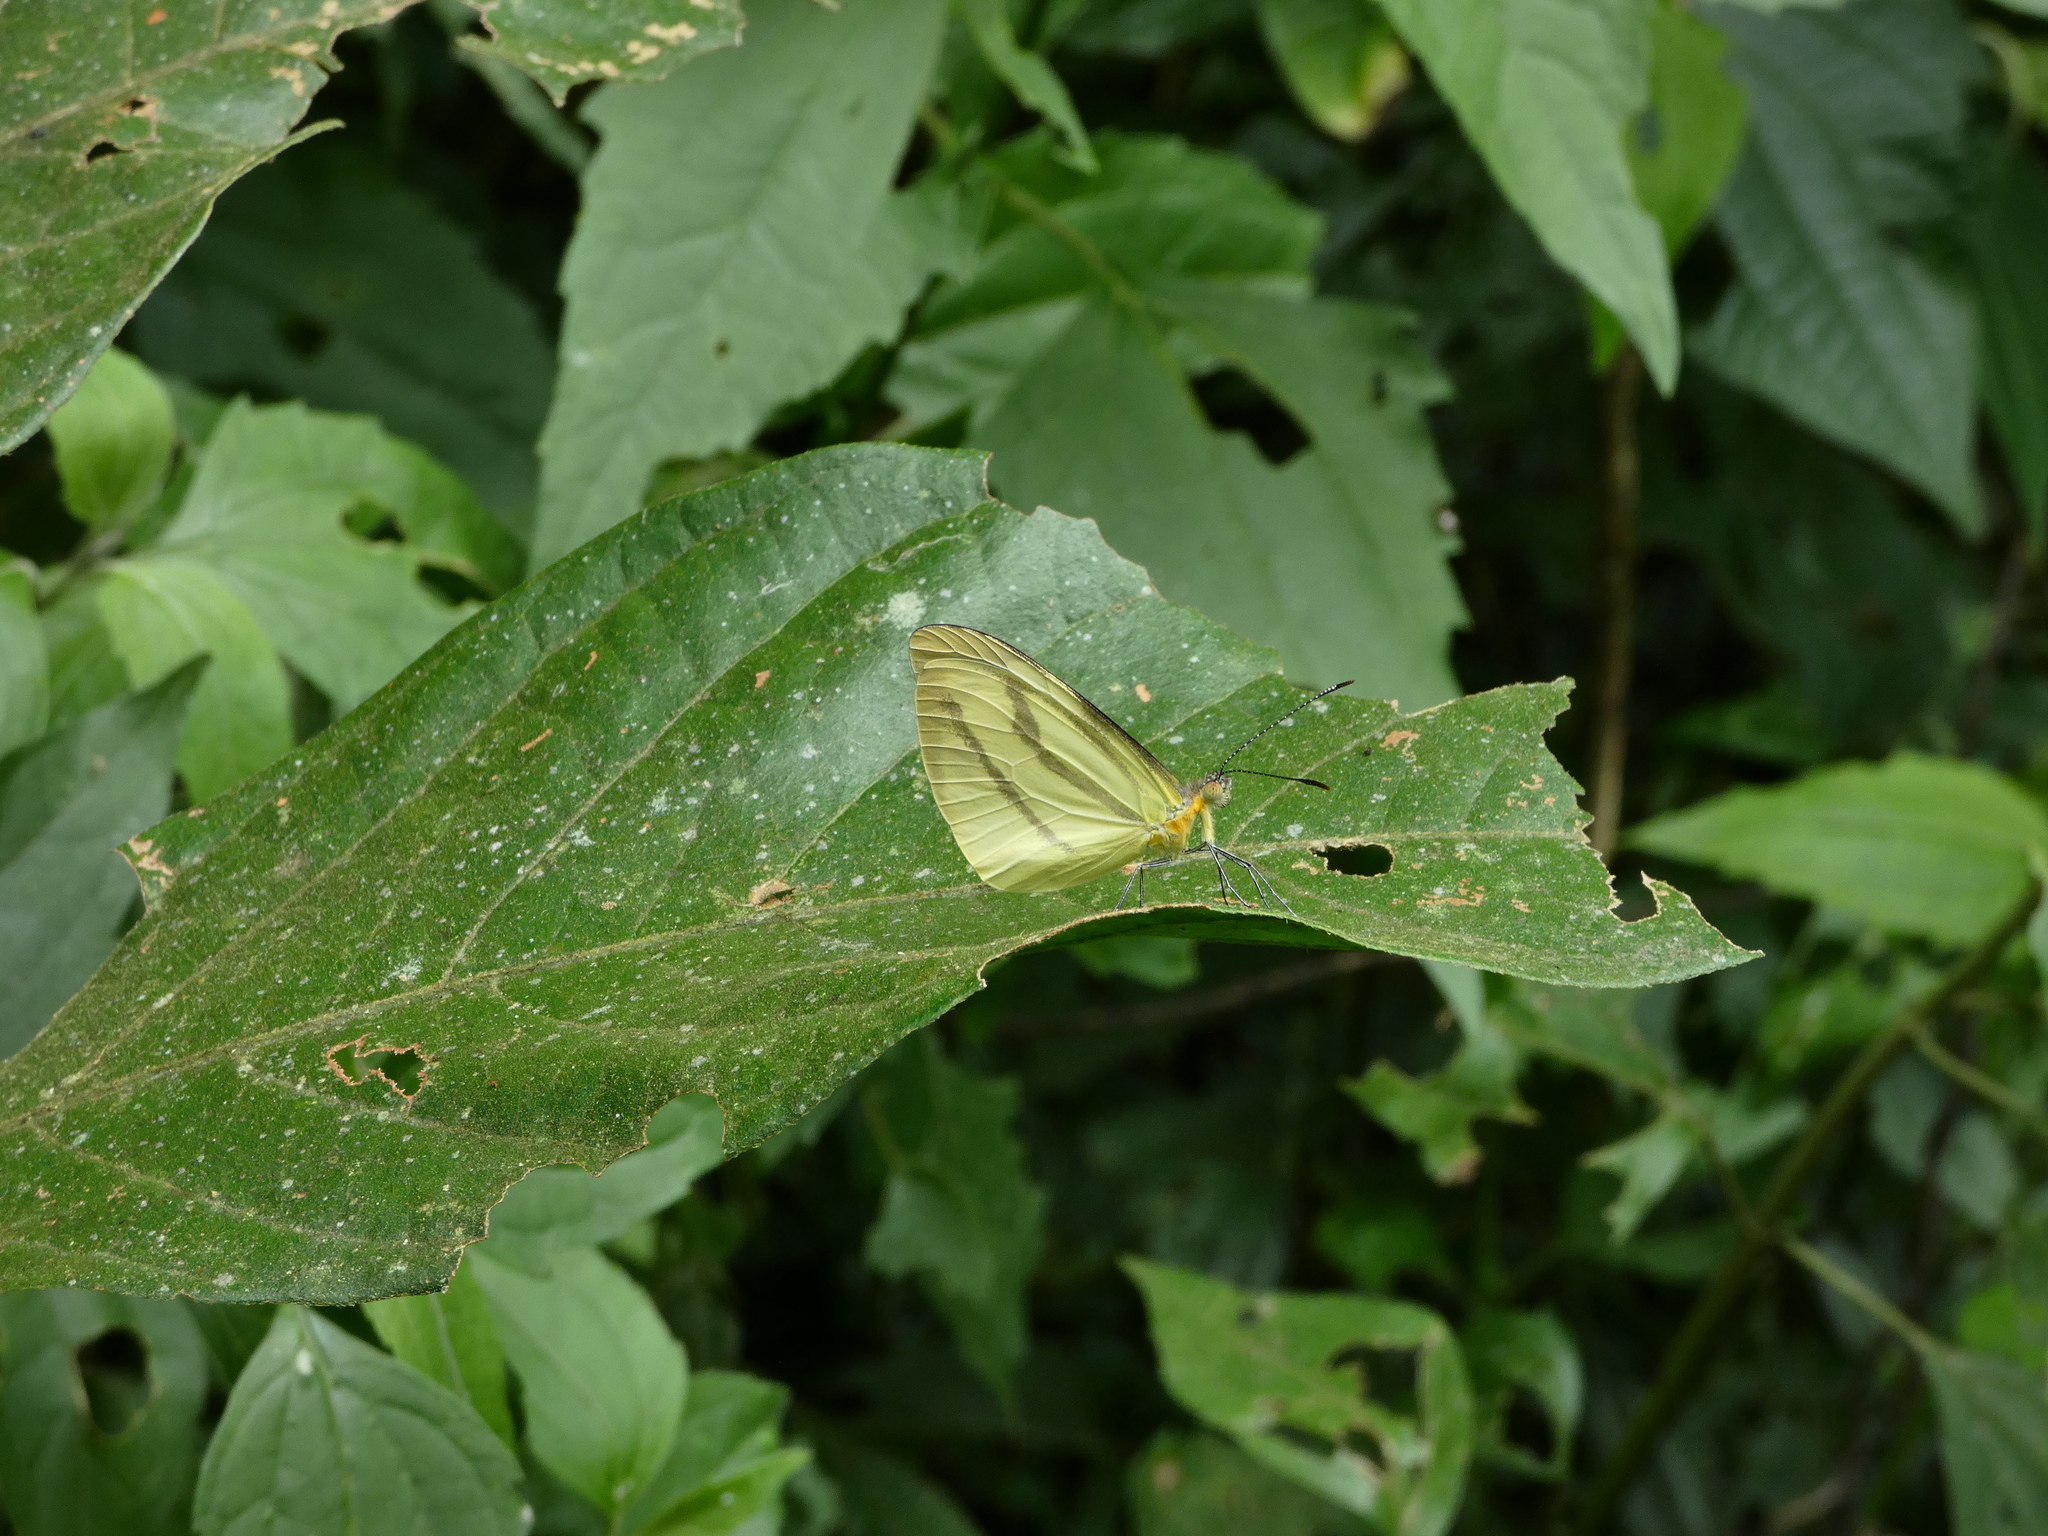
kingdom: Animalia
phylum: Arthropoda
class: Insecta
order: Lepidoptera
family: Pieridae
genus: Enantia
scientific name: Enantia lina
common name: White mimic-white
